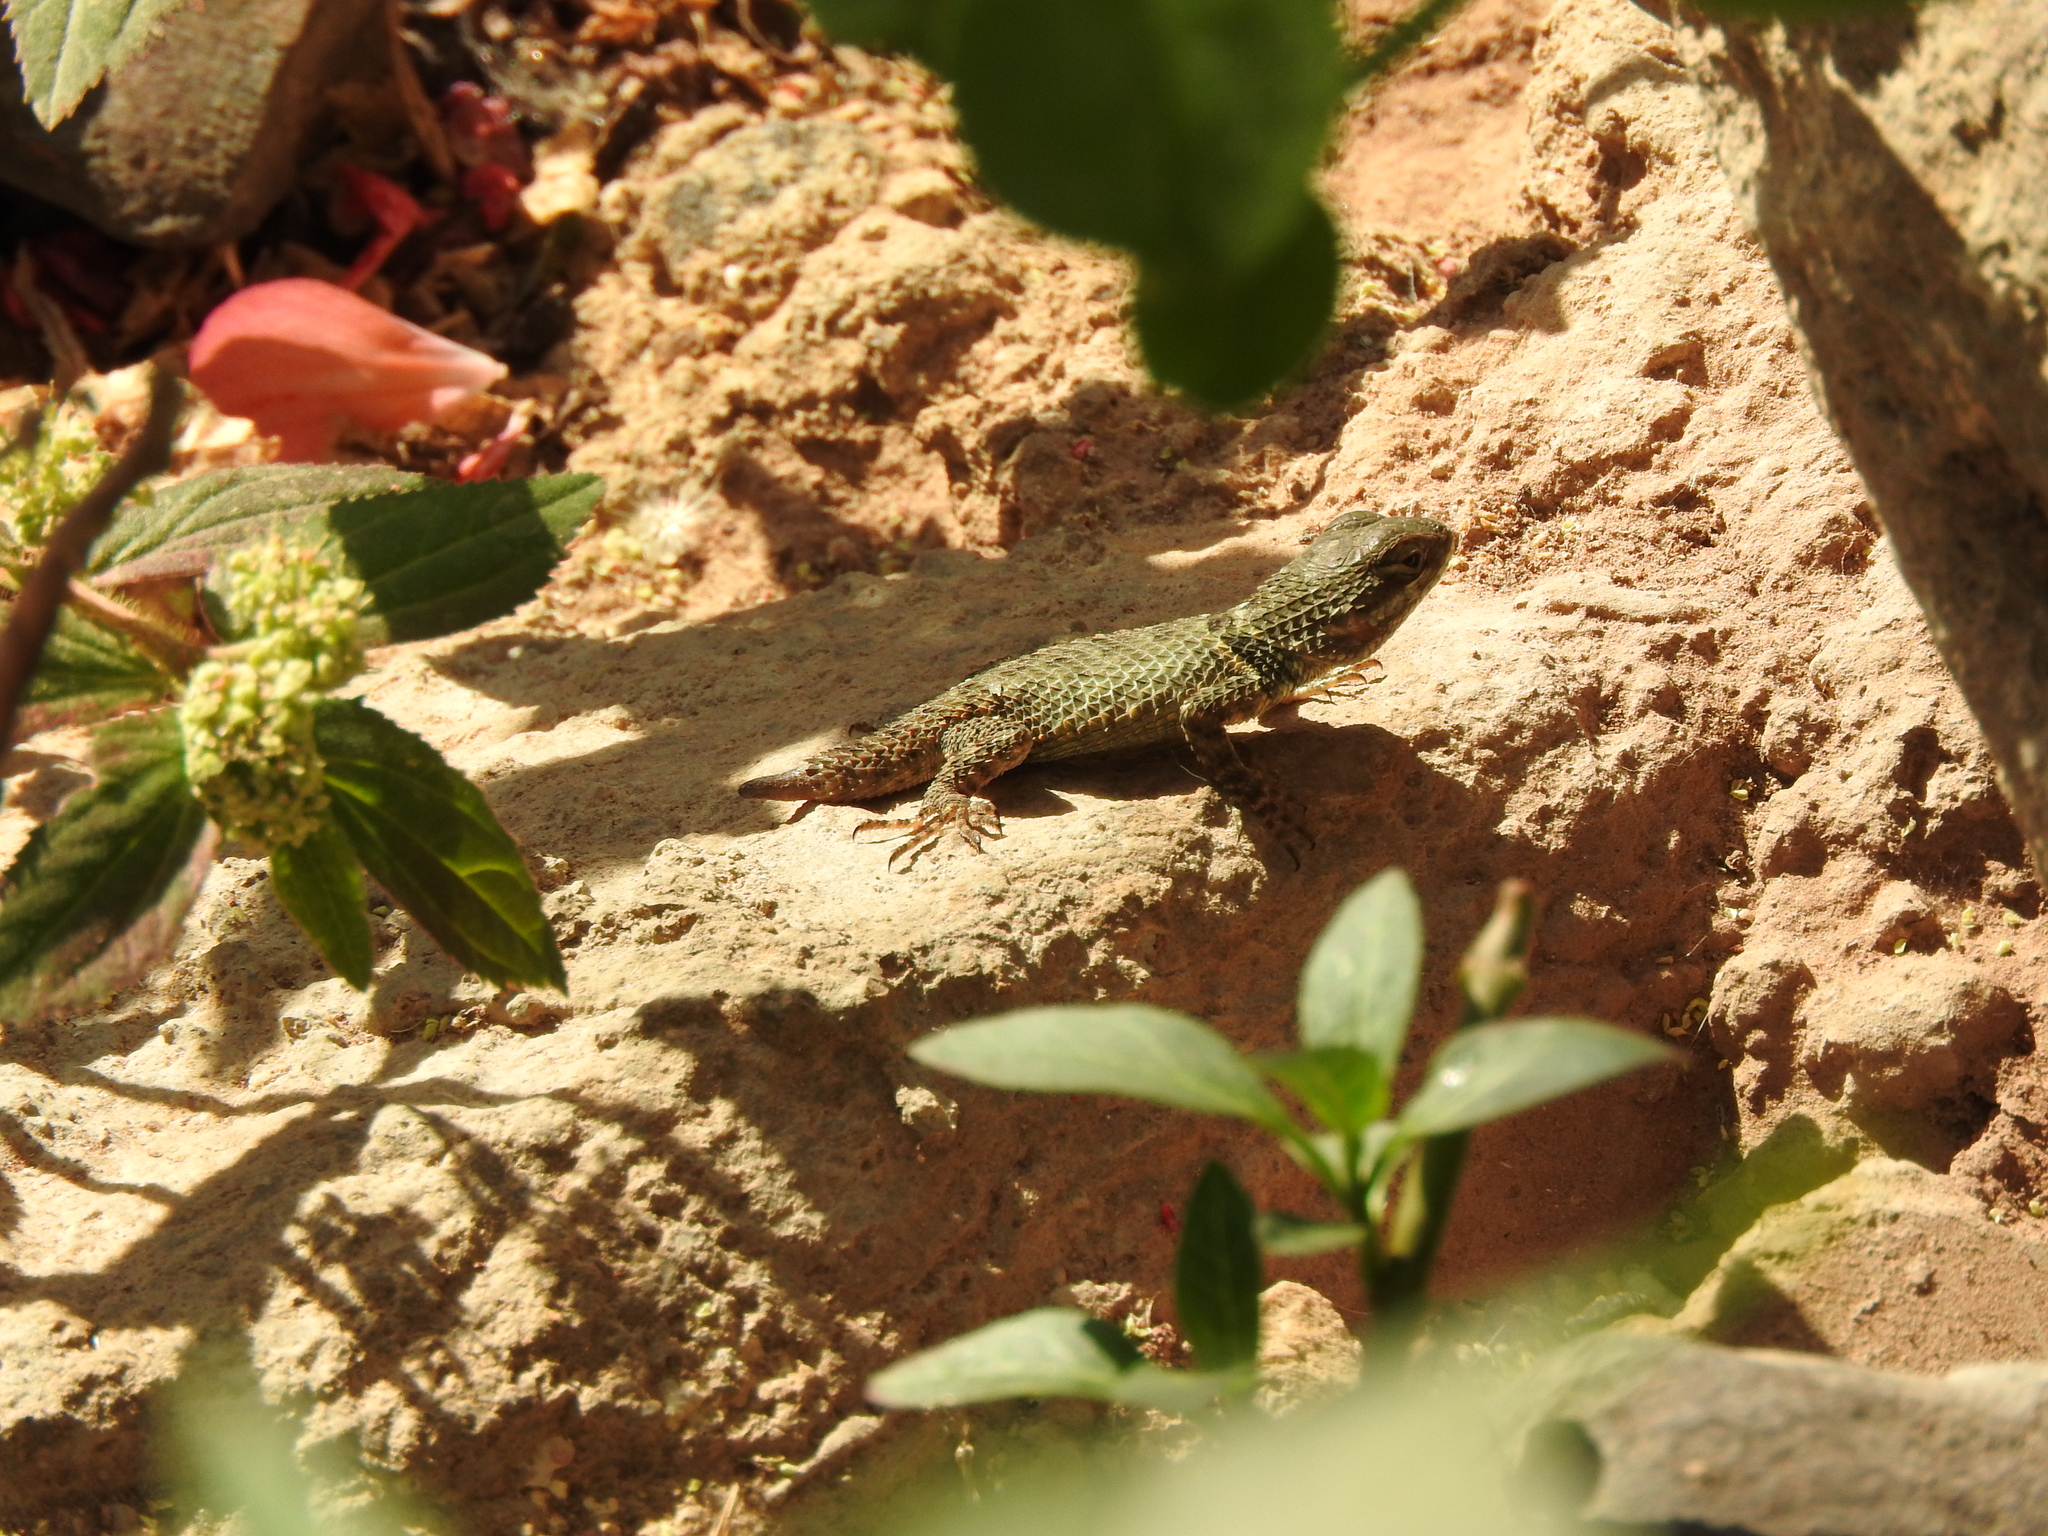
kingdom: Animalia
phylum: Chordata
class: Squamata
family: Phrynosomatidae
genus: Sceloporus
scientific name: Sceloporus torquatus
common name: Central plateau torquate lizard [melanogaster]
